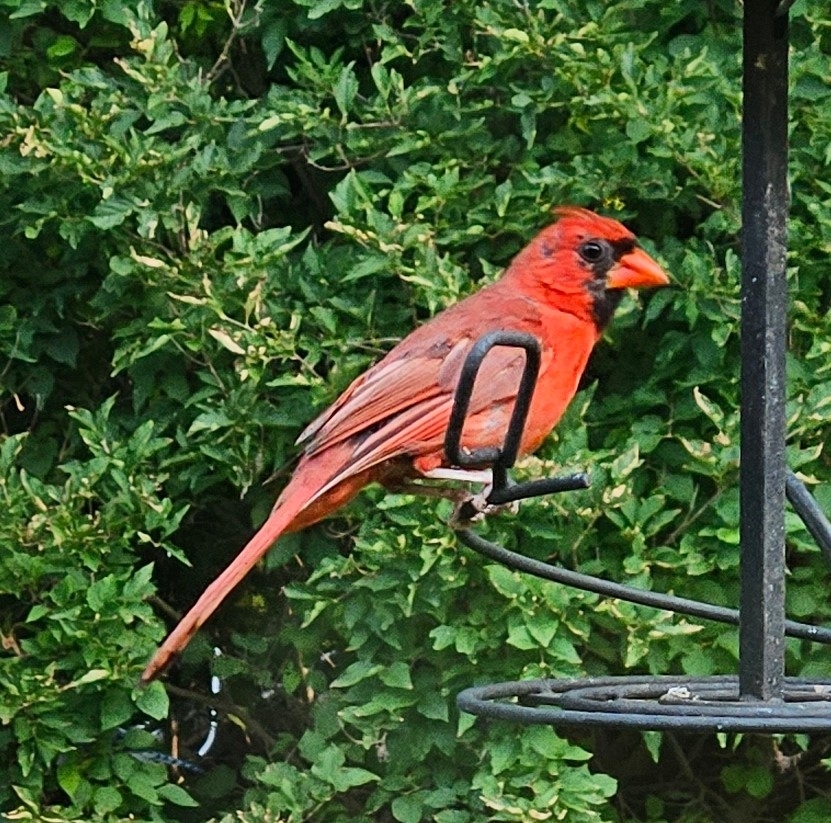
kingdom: Animalia
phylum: Chordata
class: Aves
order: Passeriformes
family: Cardinalidae
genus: Cardinalis
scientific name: Cardinalis cardinalis
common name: Northern cardinal
